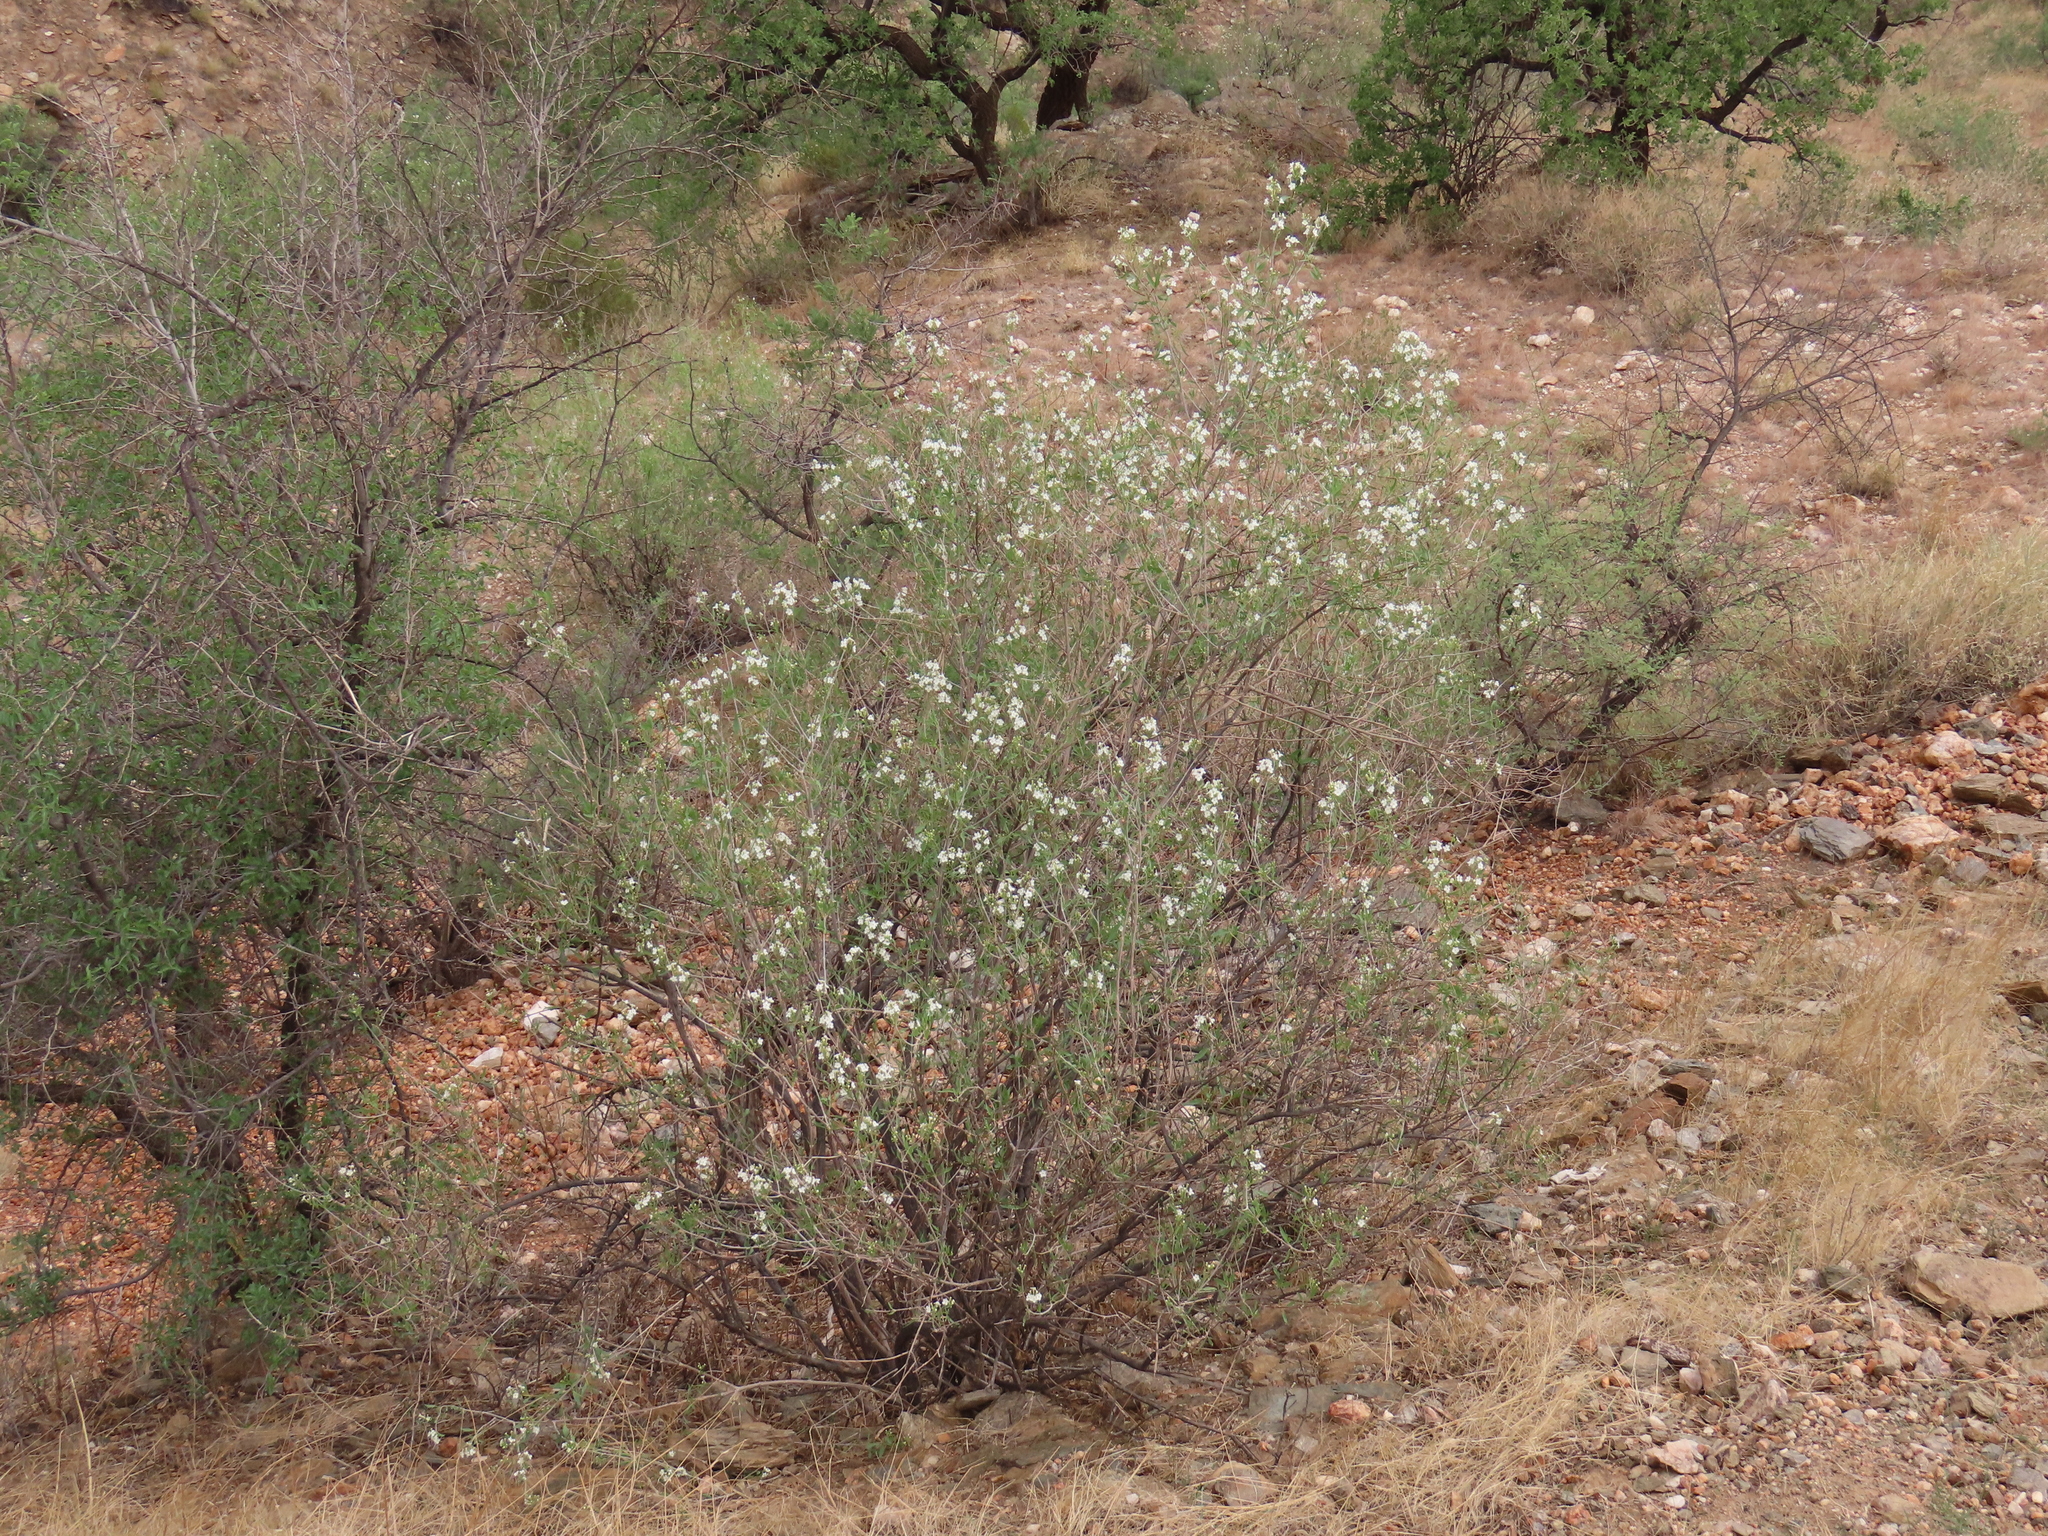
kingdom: Plantae
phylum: Tracheophyta
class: Magnoliopsida
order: Lamiales
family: Scrophulariaceae
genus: Manuleopsis
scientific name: Manuleopsis dinteri
